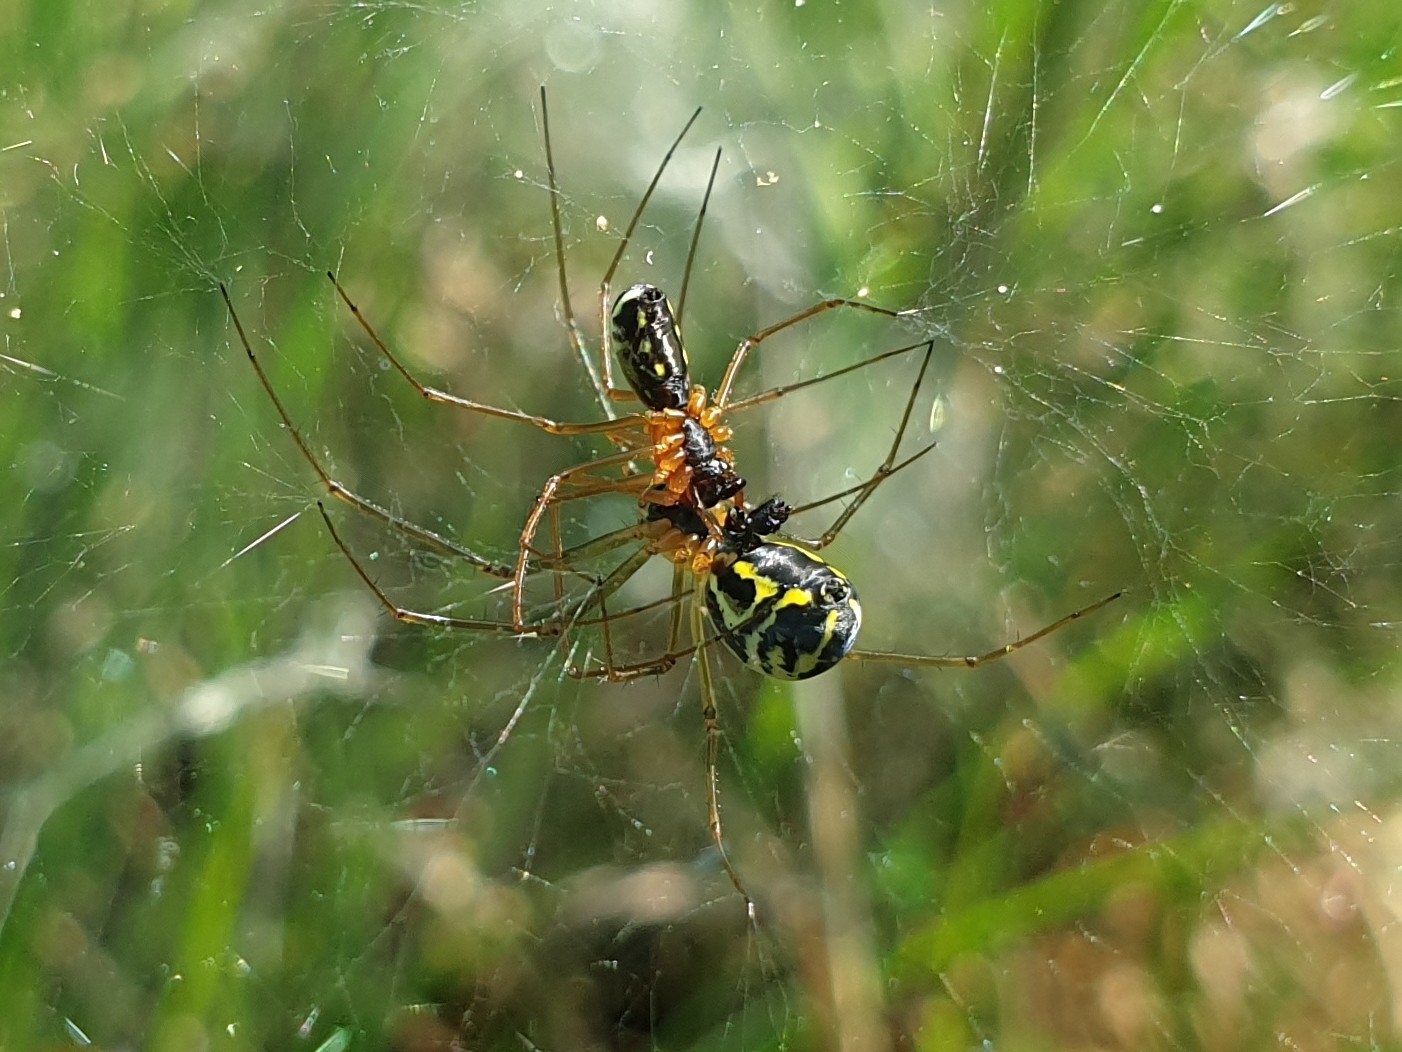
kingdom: Animalia
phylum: Arthropoda
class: Arachnida
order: Araneae
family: Linyphiidae
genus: Neriene
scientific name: Neriene radiata
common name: Filmy dome spider
